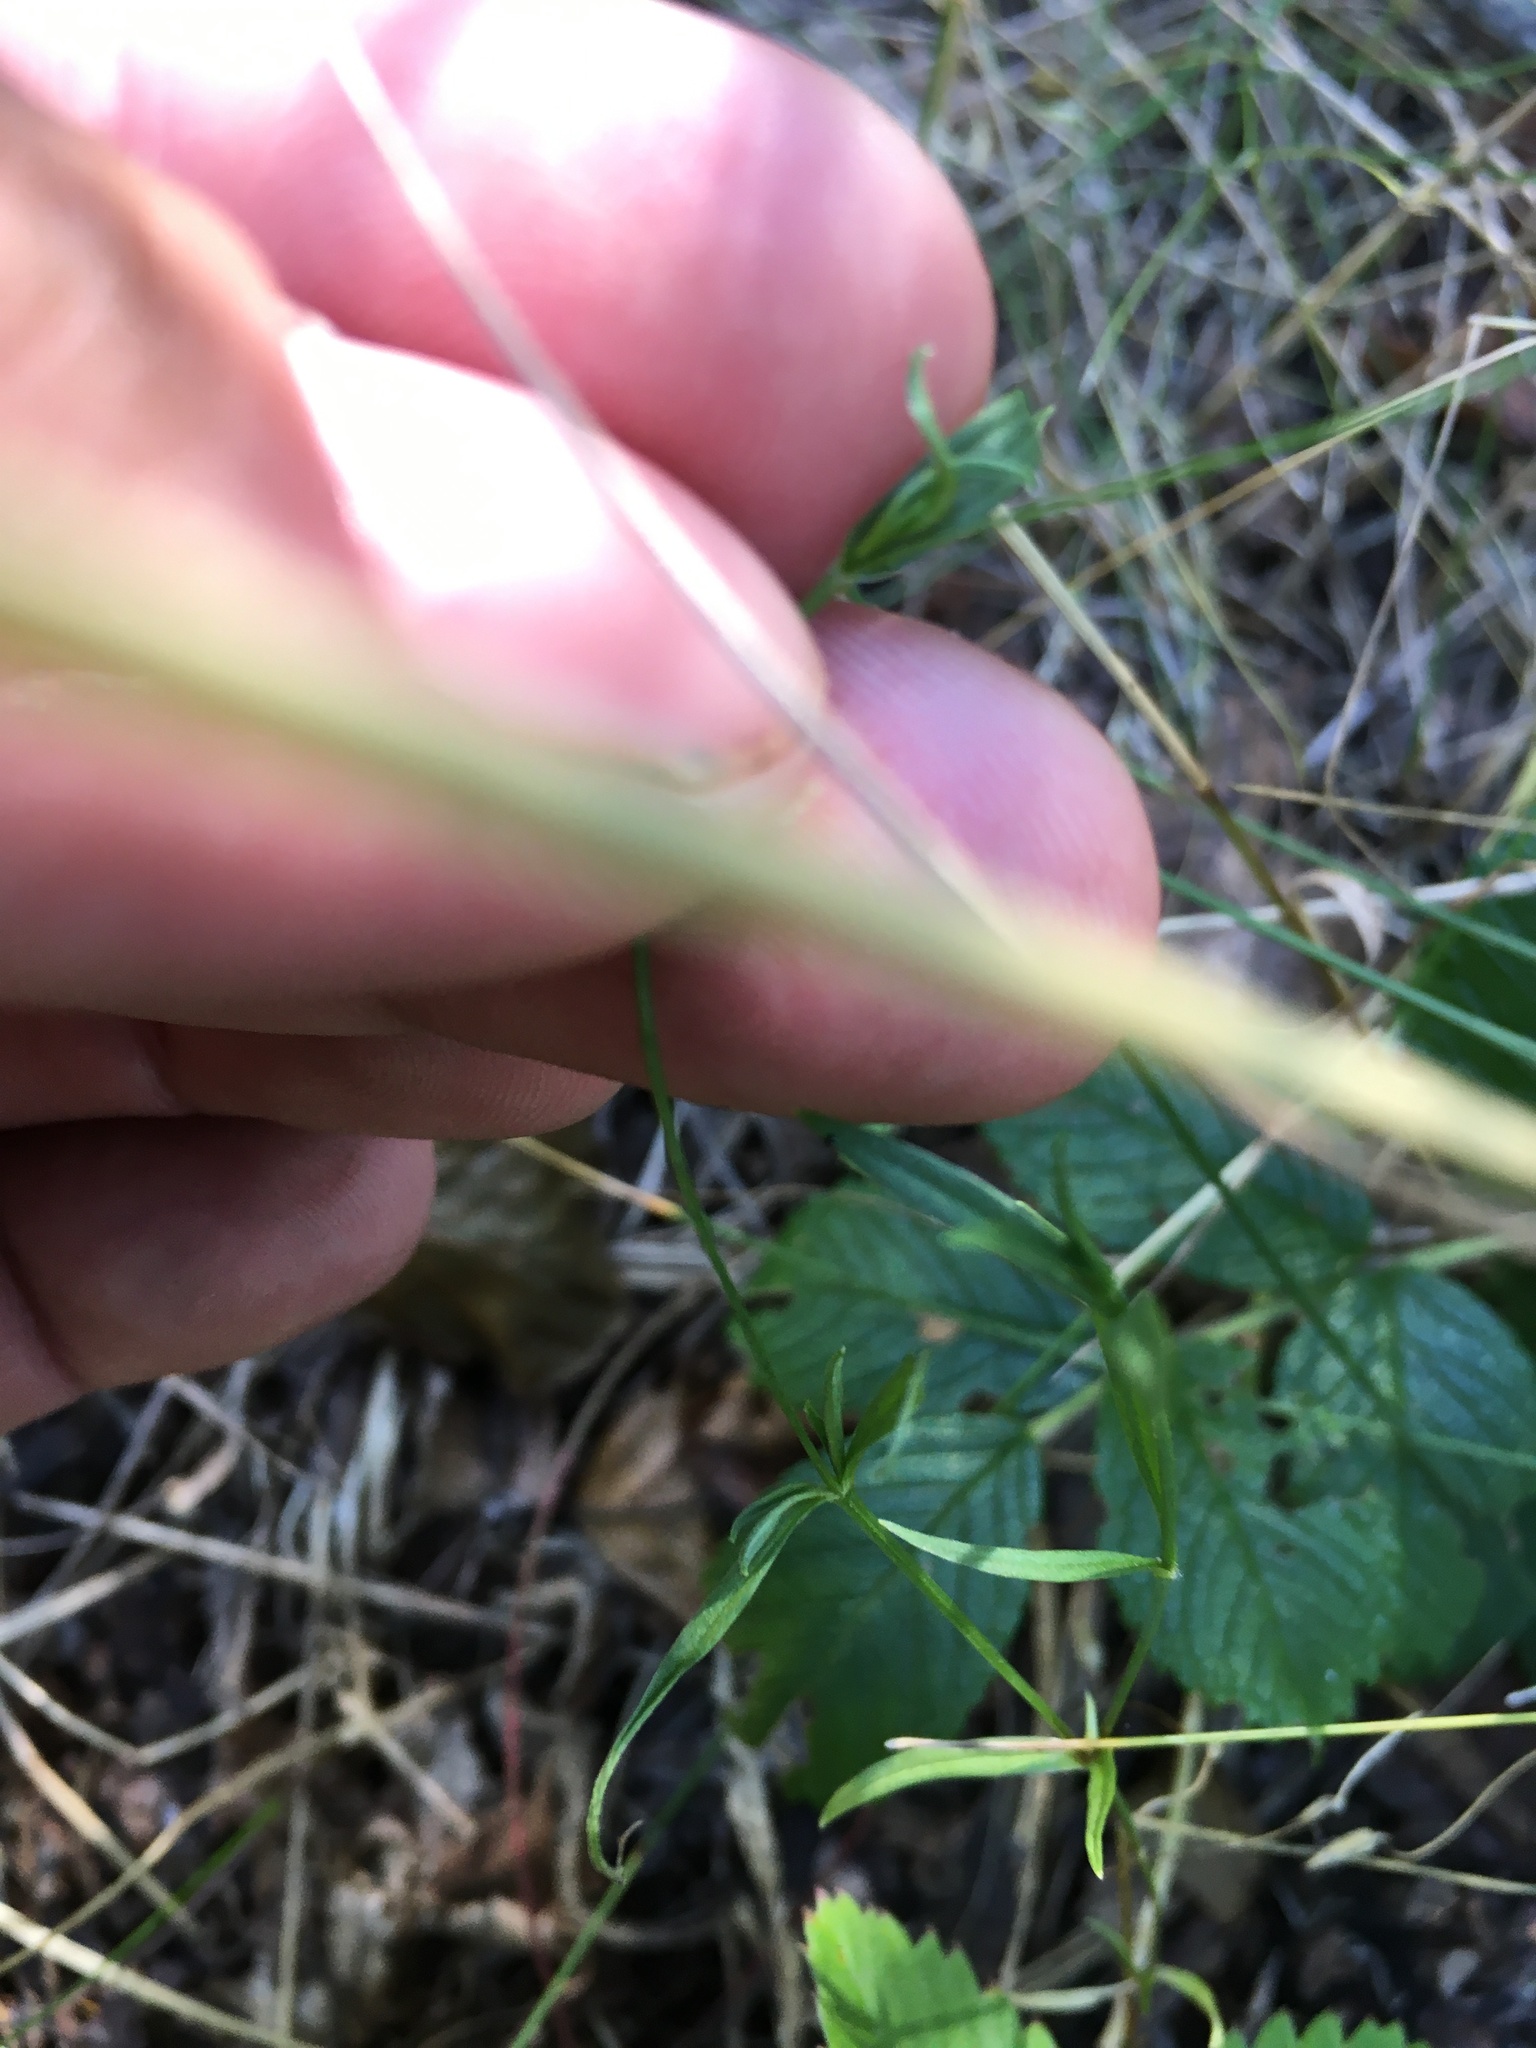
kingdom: Plantae
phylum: Tracheophyta
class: Magnoliopsida
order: Caryophyllales
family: Caryophyllaceae
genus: Stellaria
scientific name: Stellaria graminea
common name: Grass-like starwort
